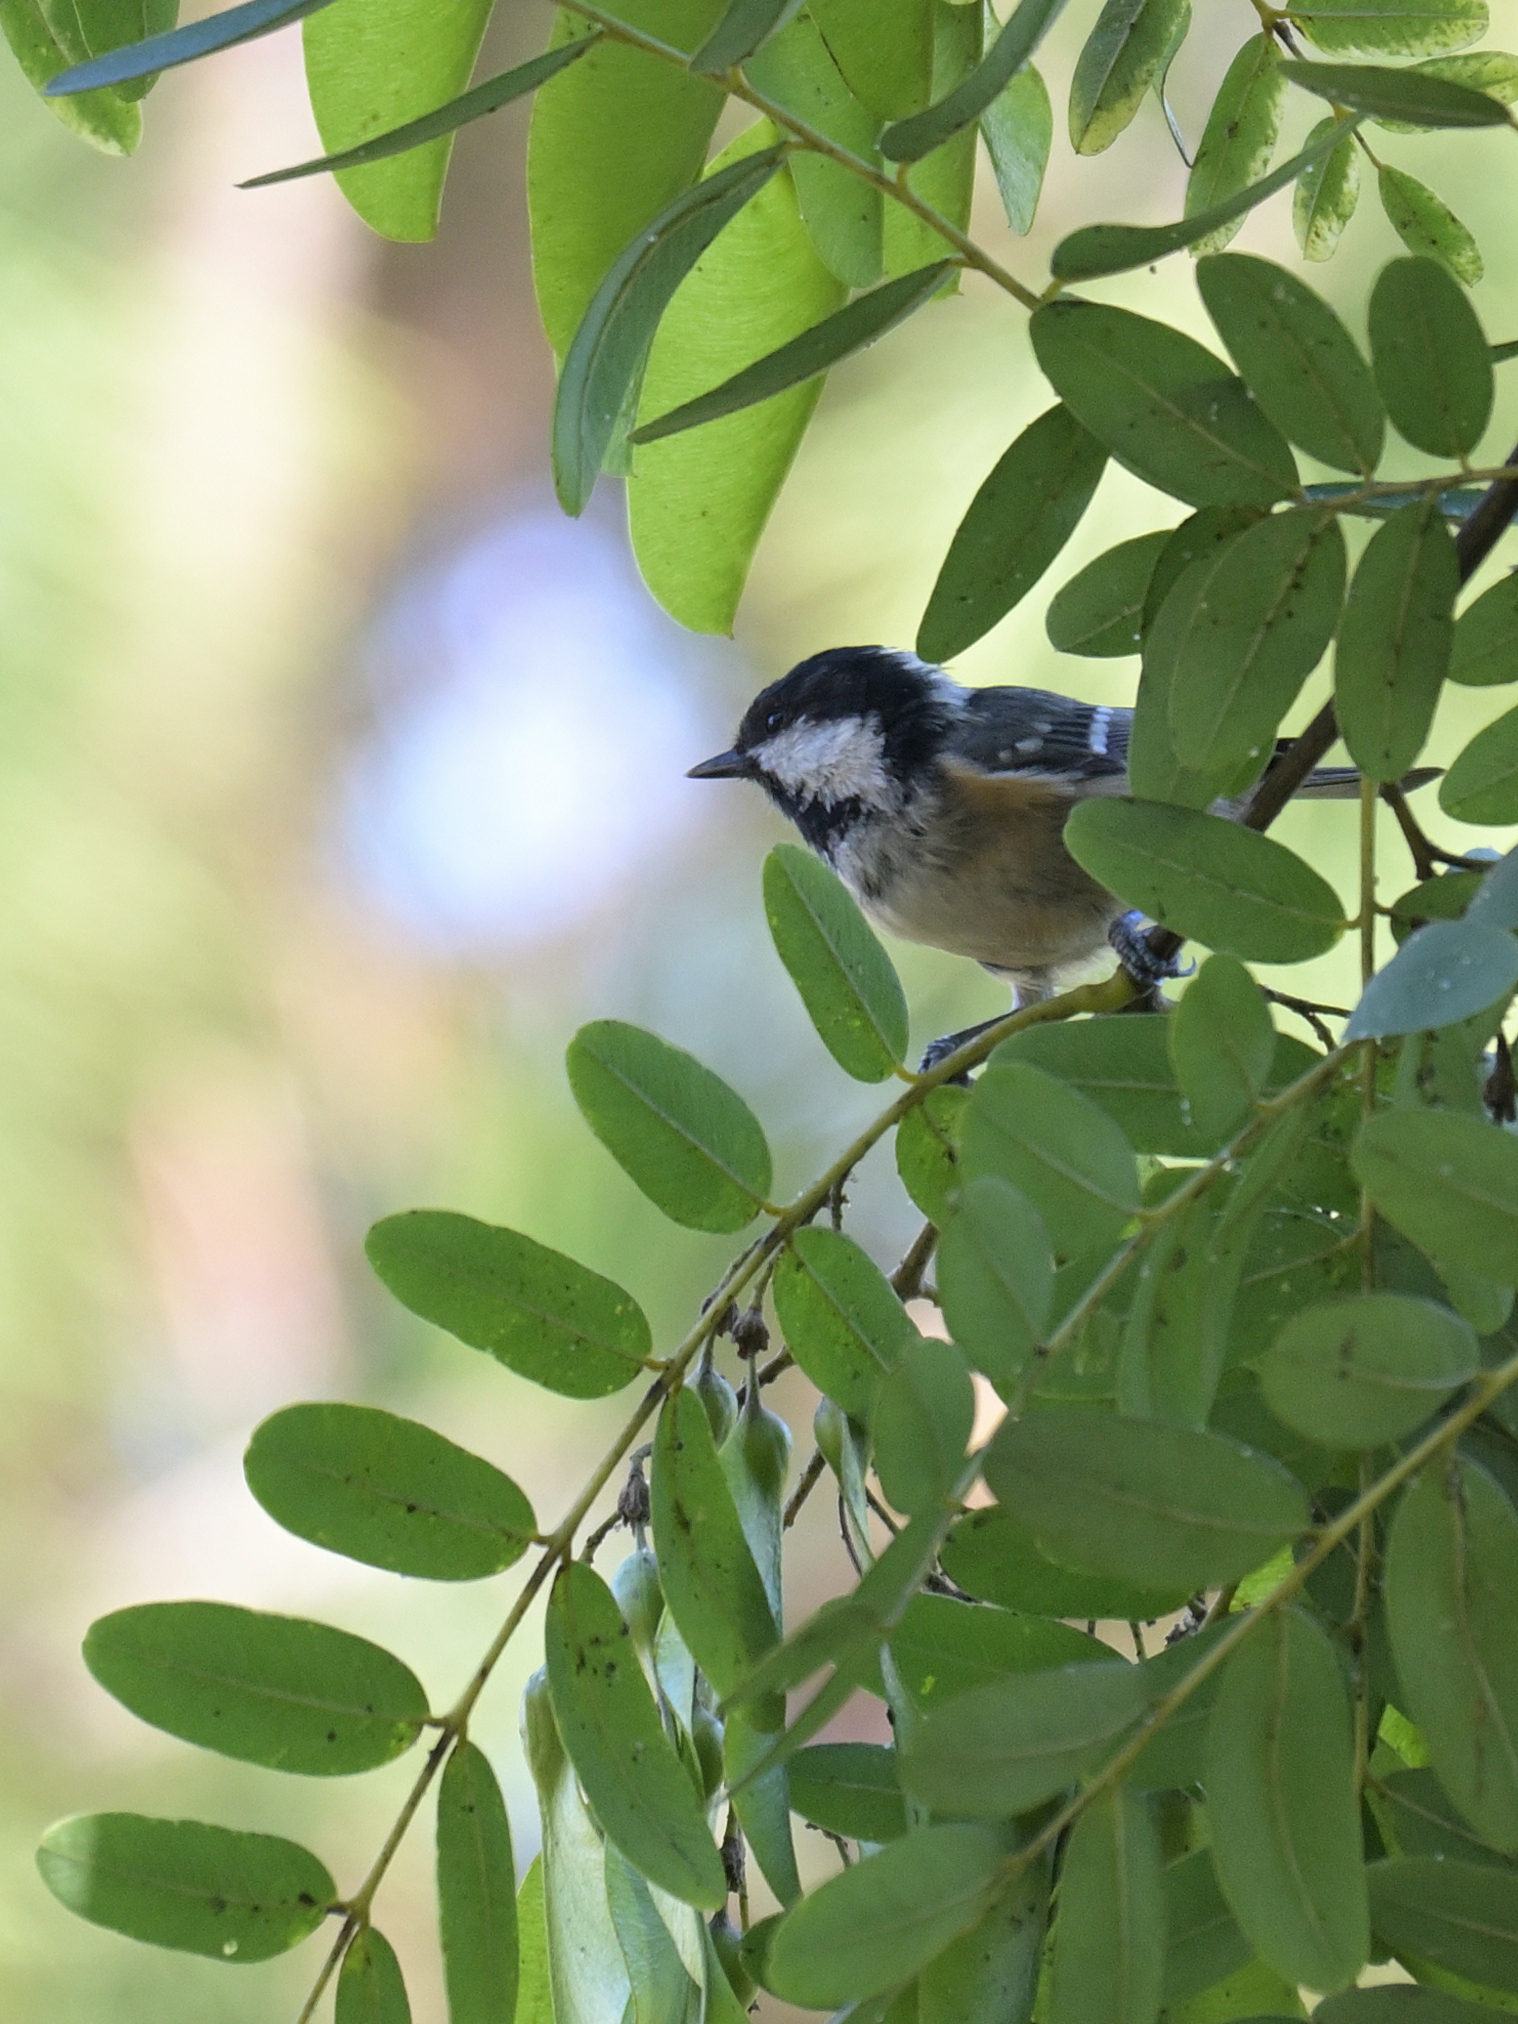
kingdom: Animalia
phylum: Chordata
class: Aves
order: Passeriformes
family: Paridae
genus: Periparus
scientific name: Periparus ater
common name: Coal tit
